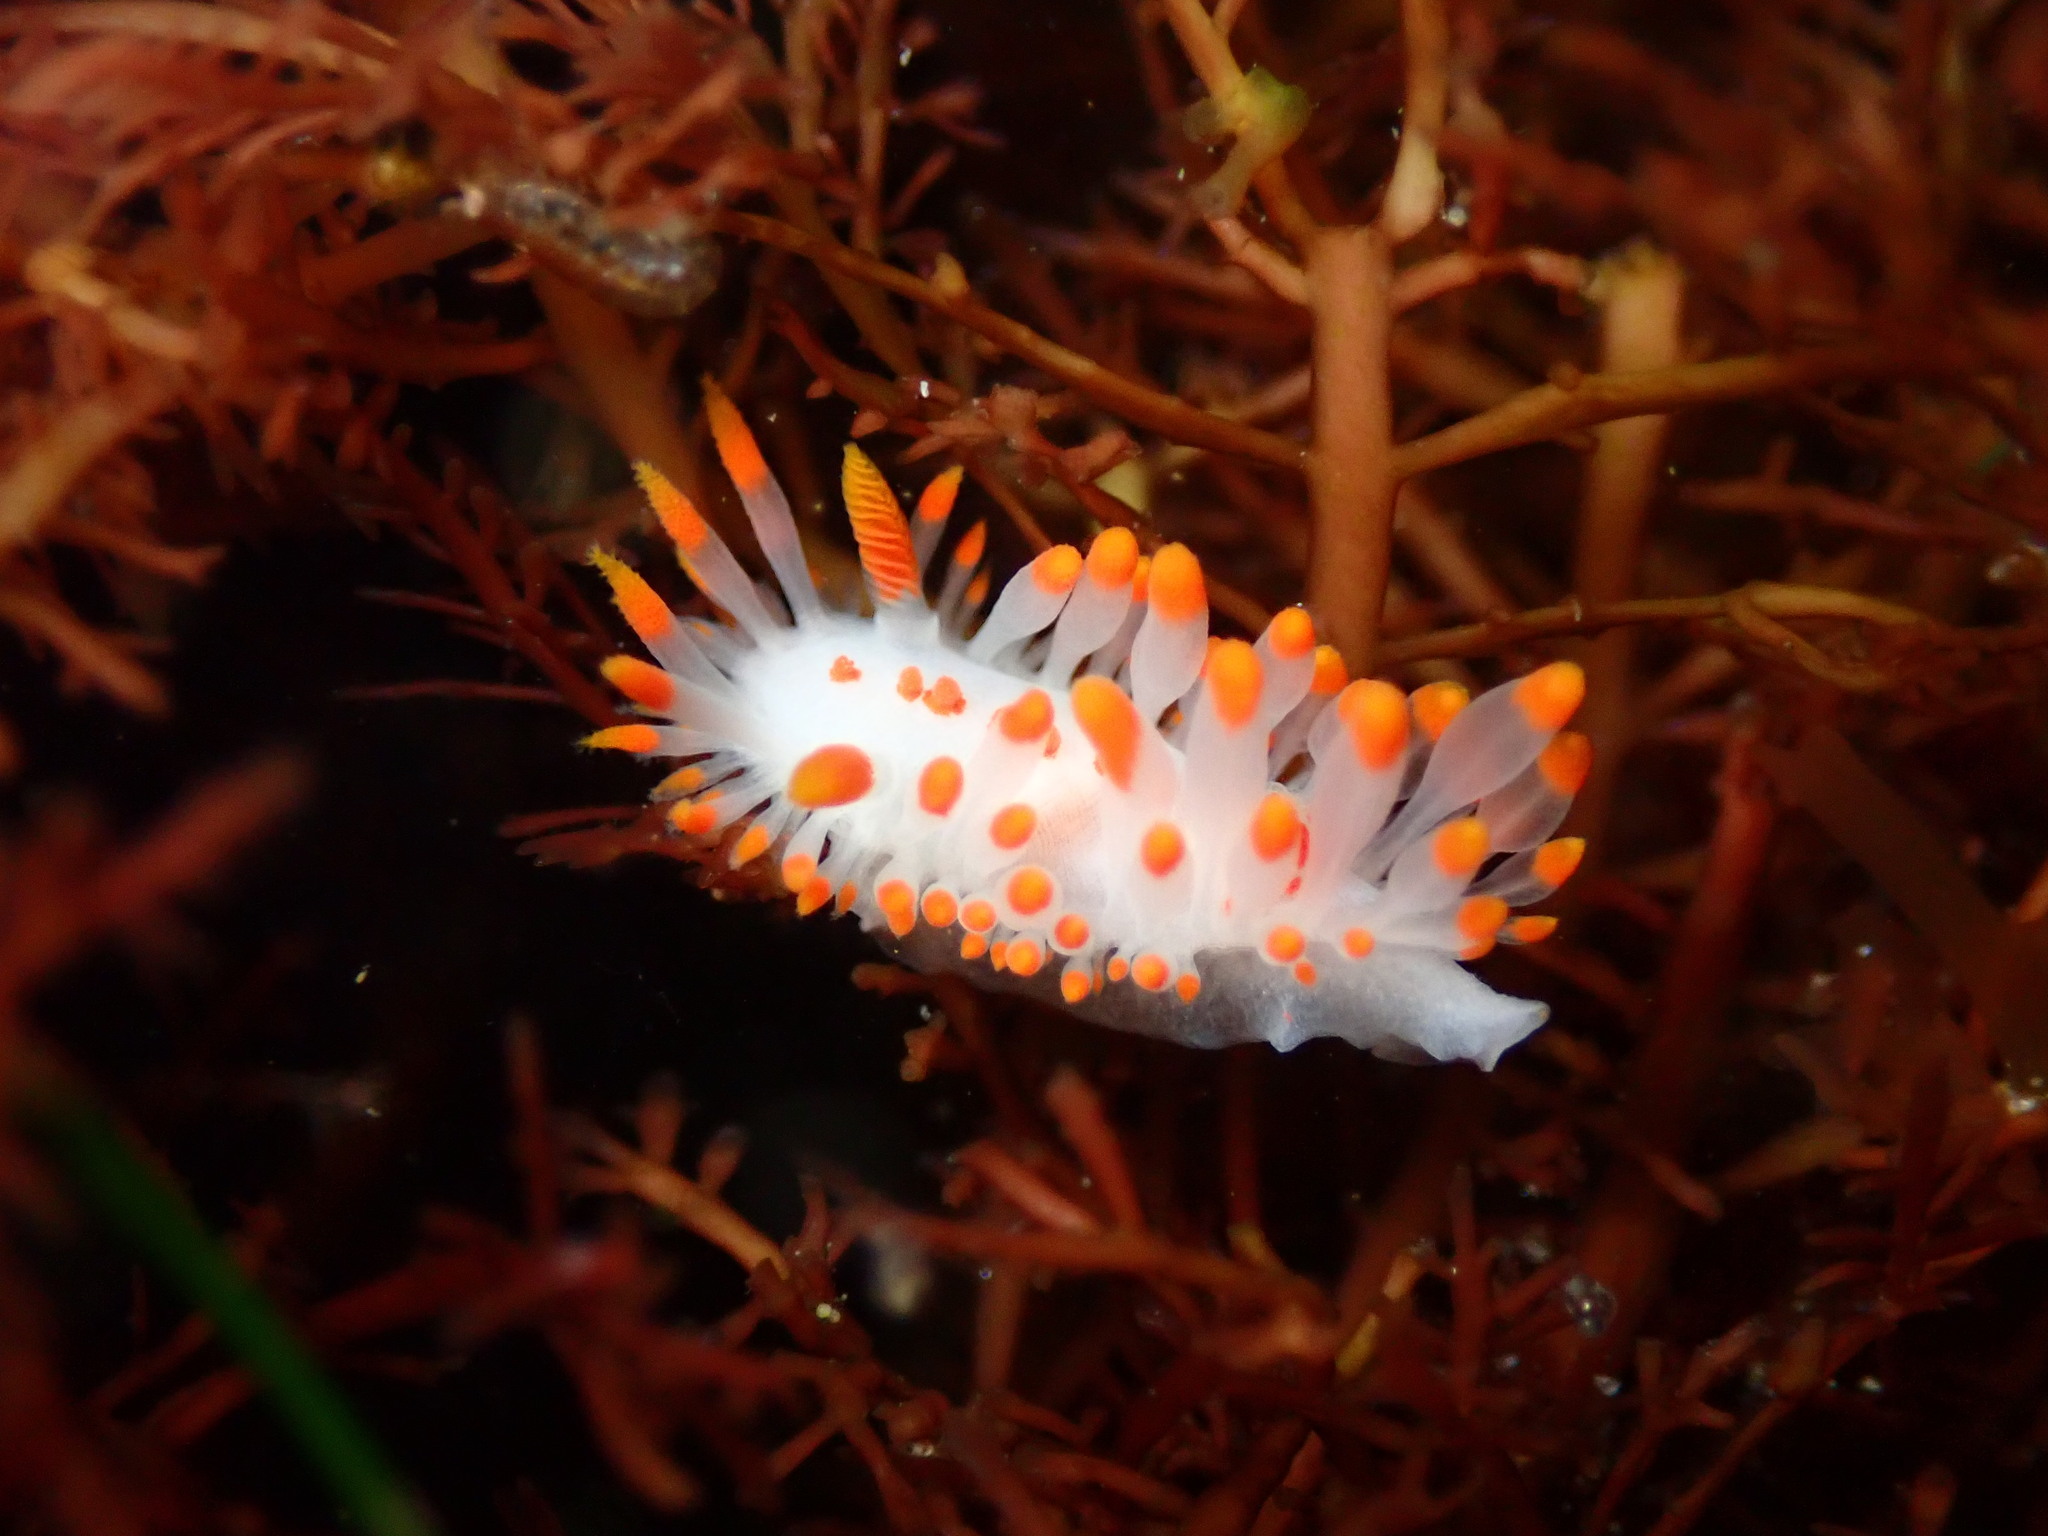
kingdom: Animalia
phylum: Mollusca
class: Gastropoda
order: Nudibranchia
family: Polyceridae
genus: Limacia
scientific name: Limacia mcdonaldi
